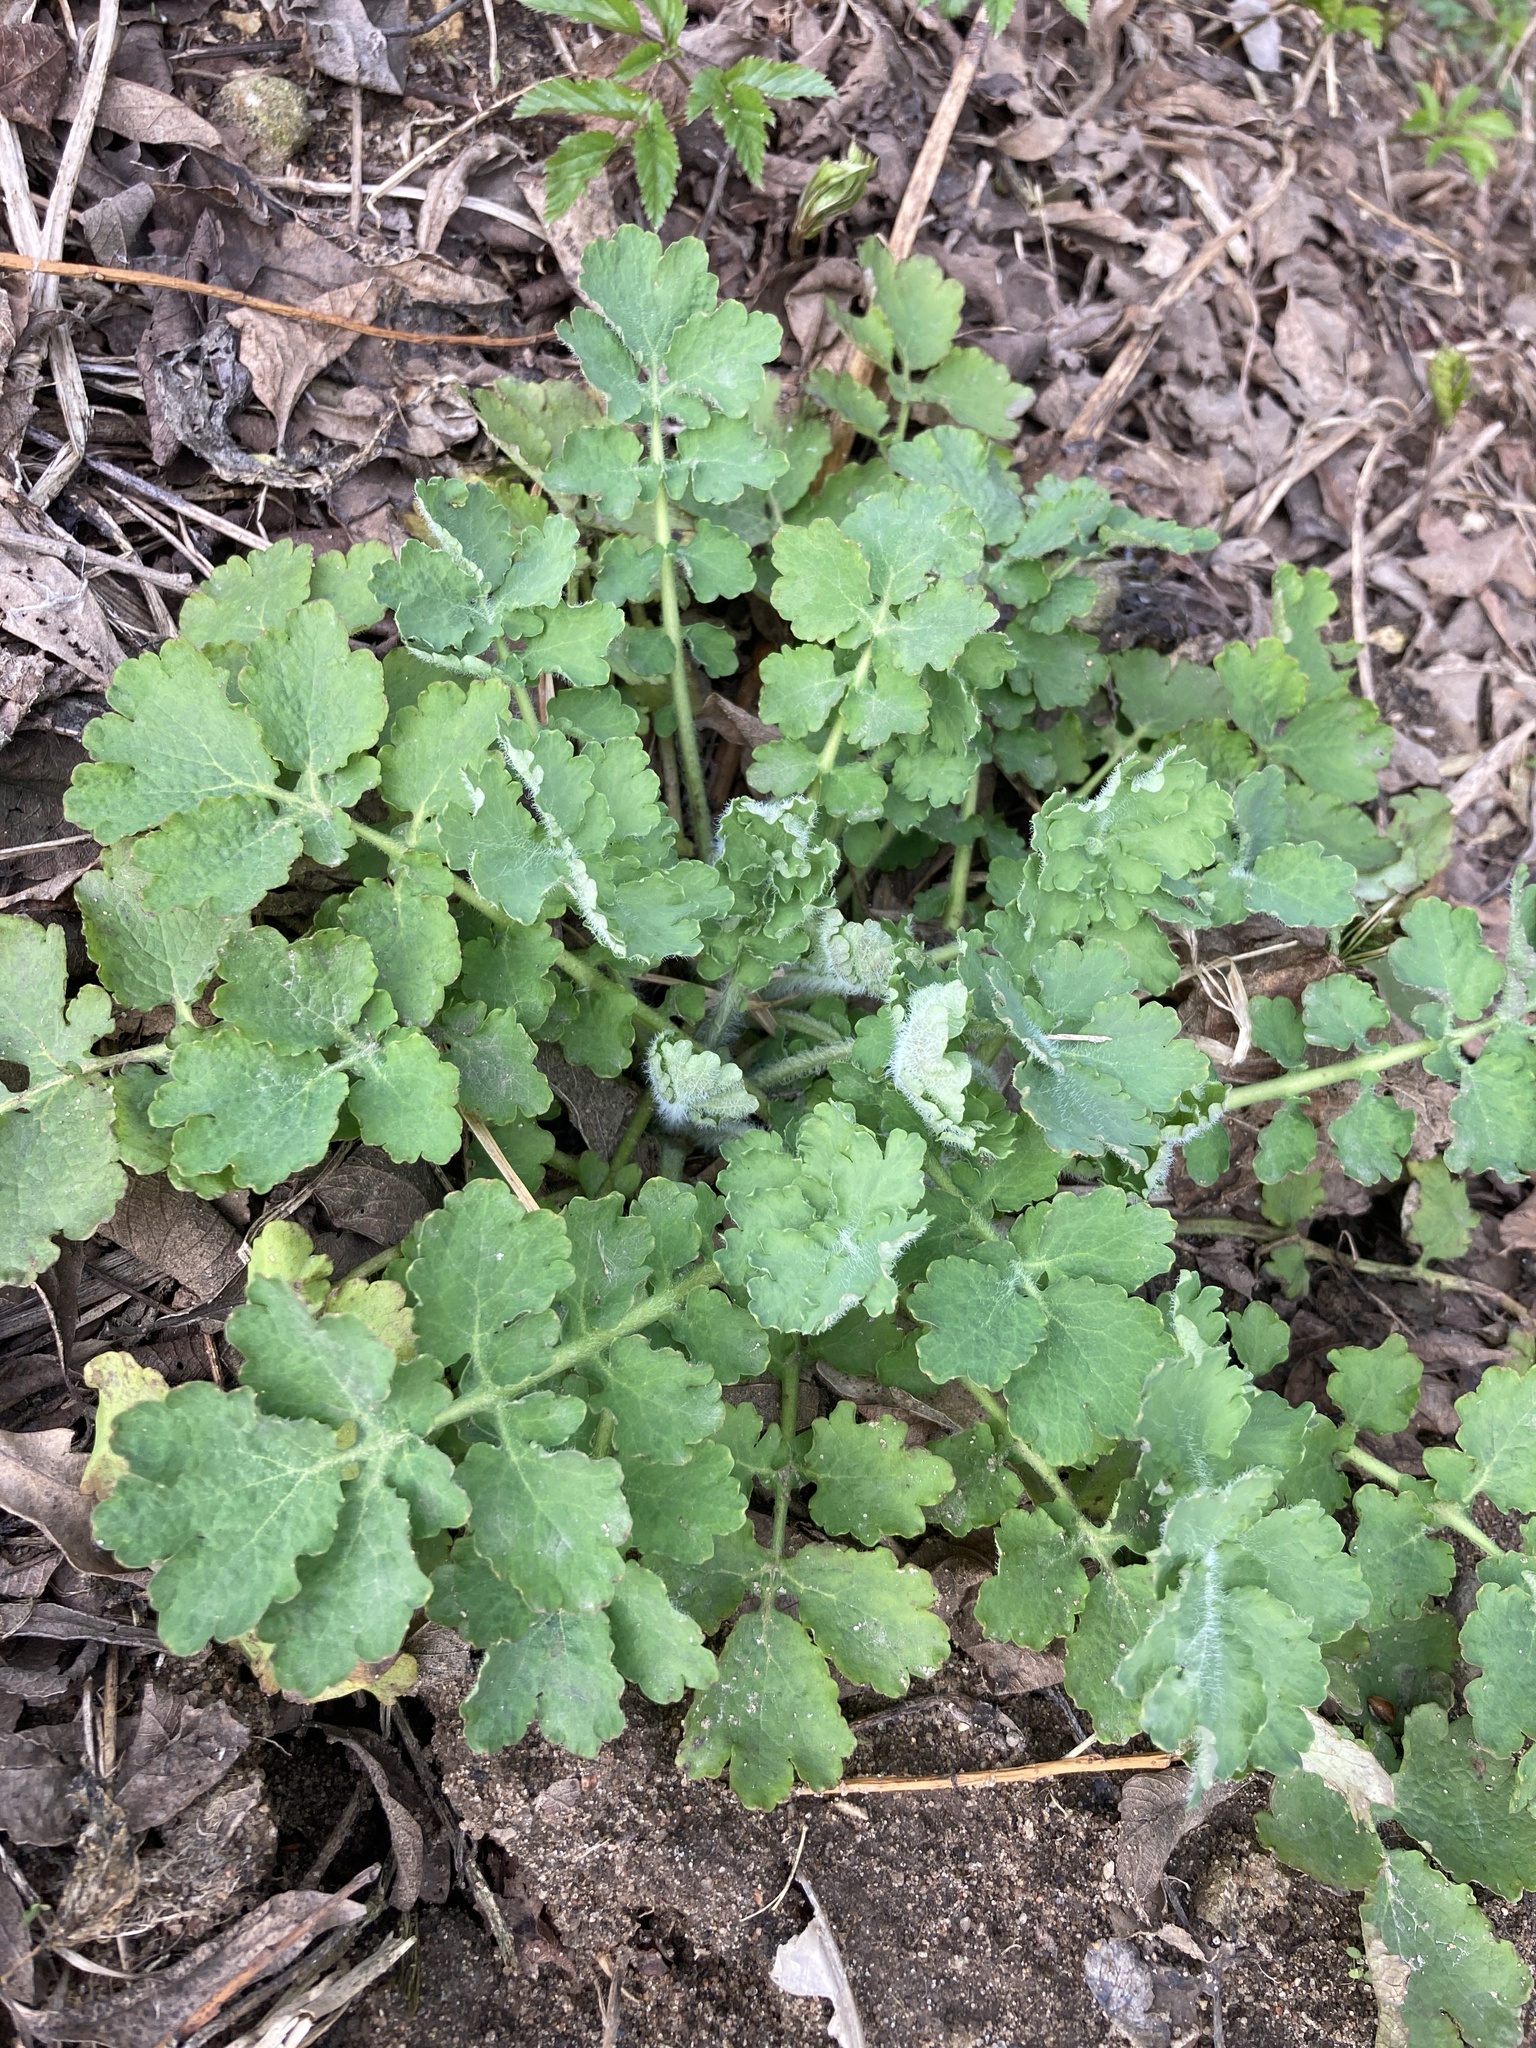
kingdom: Plantae
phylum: Tracheophyta
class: Magnoliopsida
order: Ranunculales
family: Papaveraceae
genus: Chelidonium
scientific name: Chelidonium majus
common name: Greater celandine
